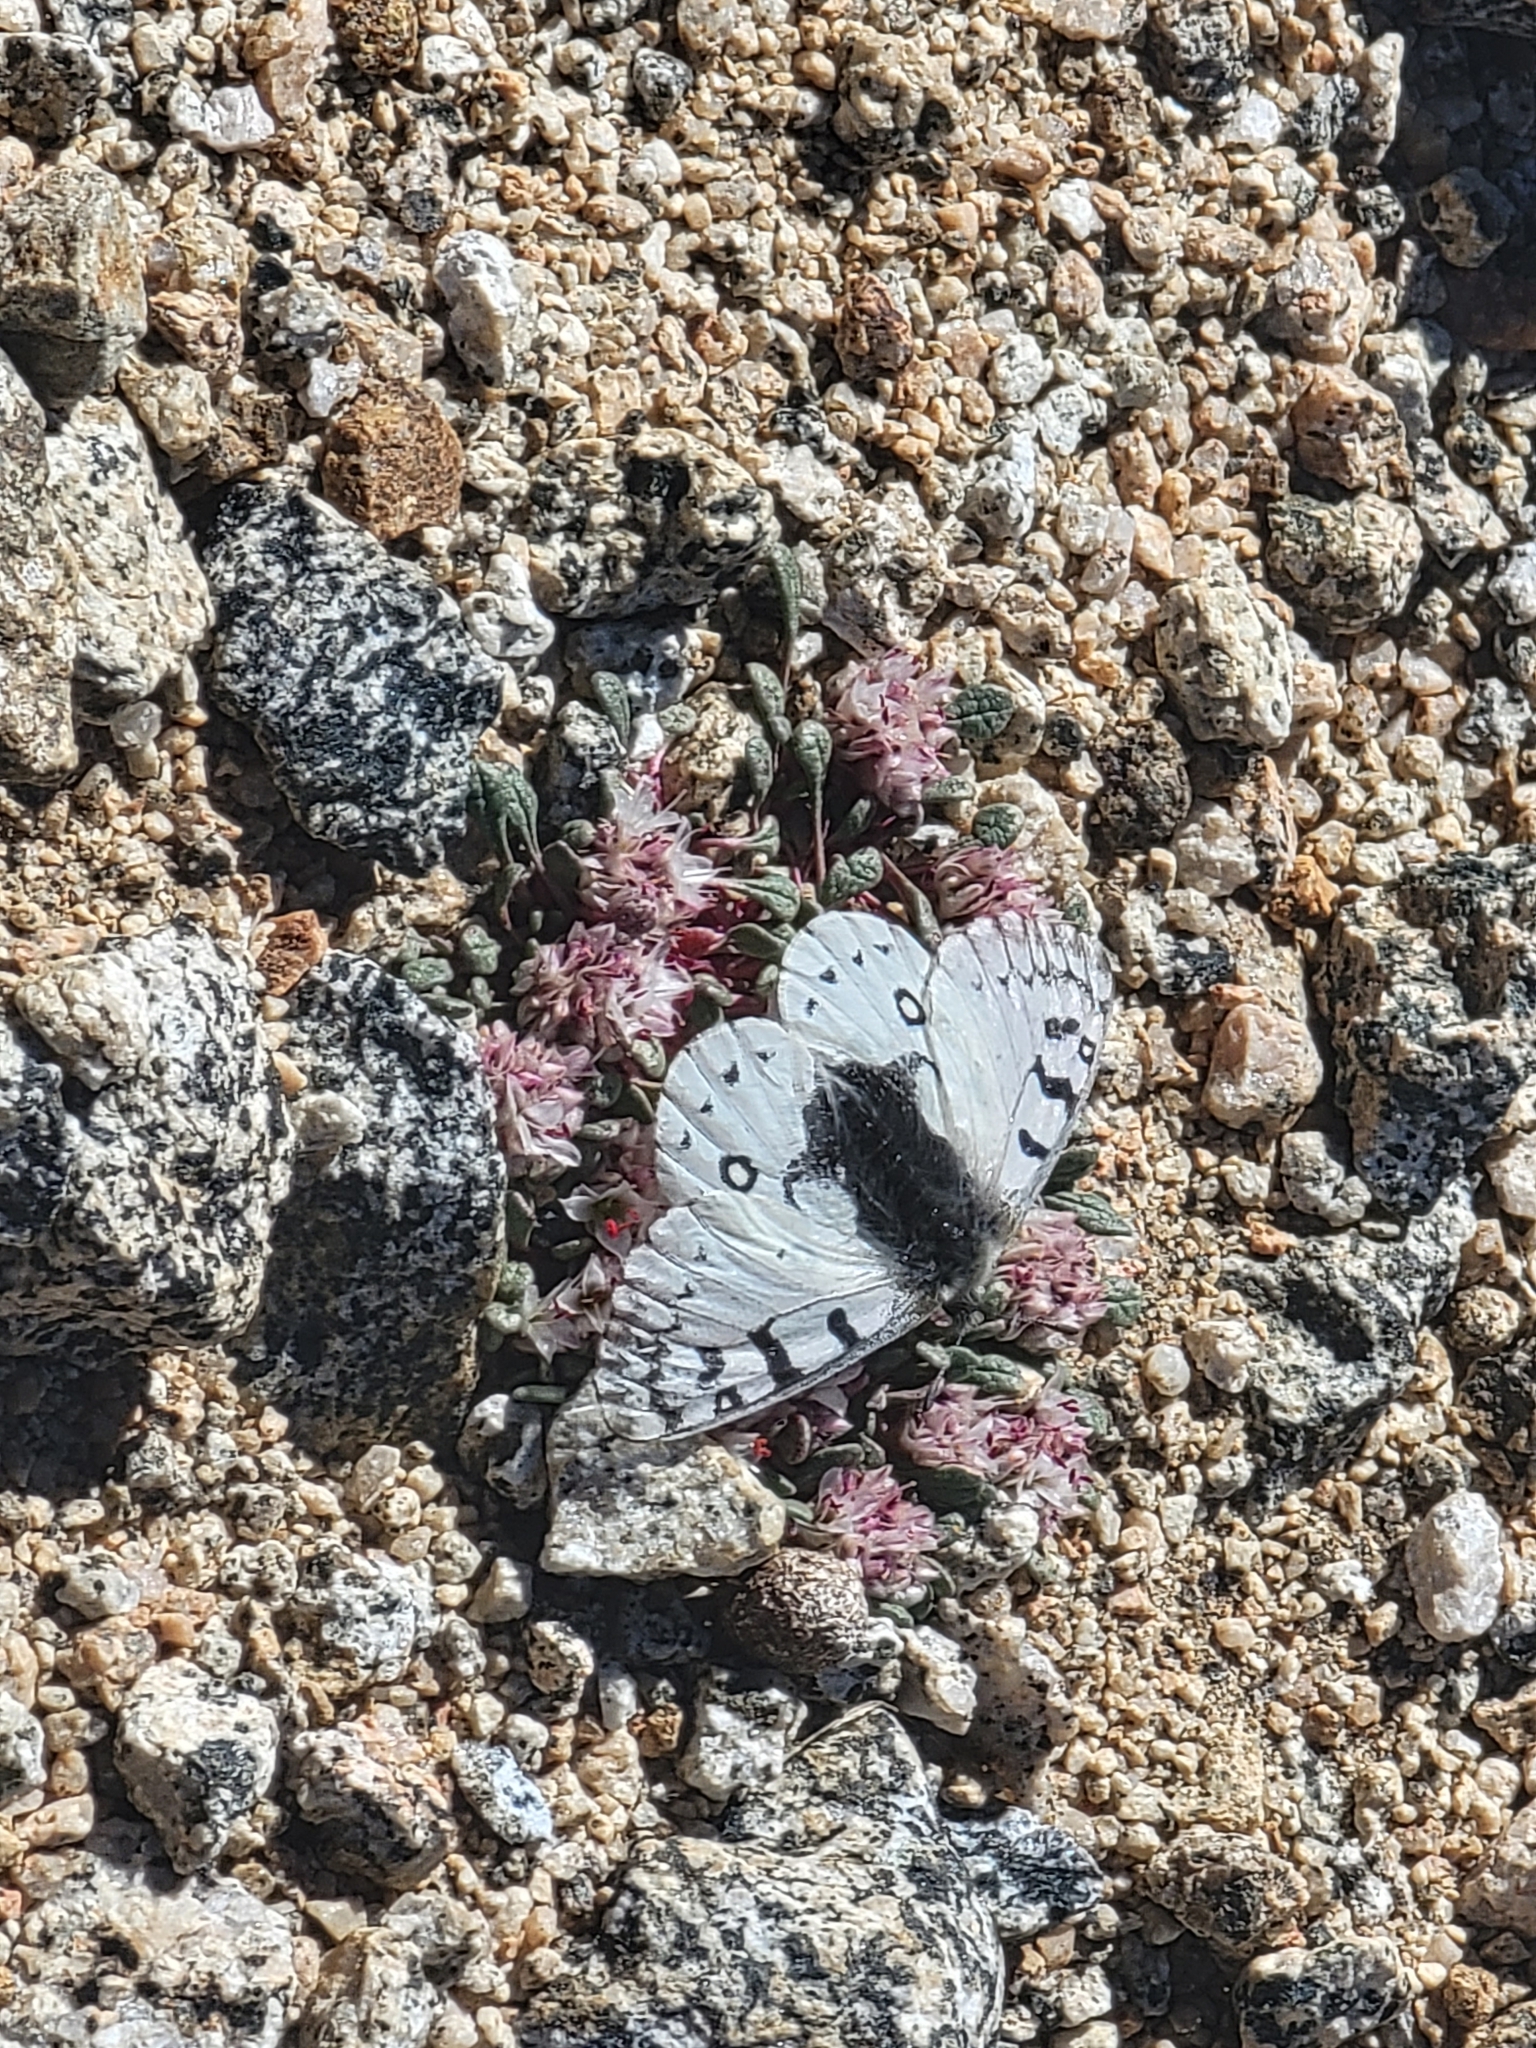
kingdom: Animalia
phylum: Arthropoda
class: Insecta
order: Lepidoptera
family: Papilionidae
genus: Parnassius
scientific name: Parnassius smintheus
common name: Mountain parnassian
